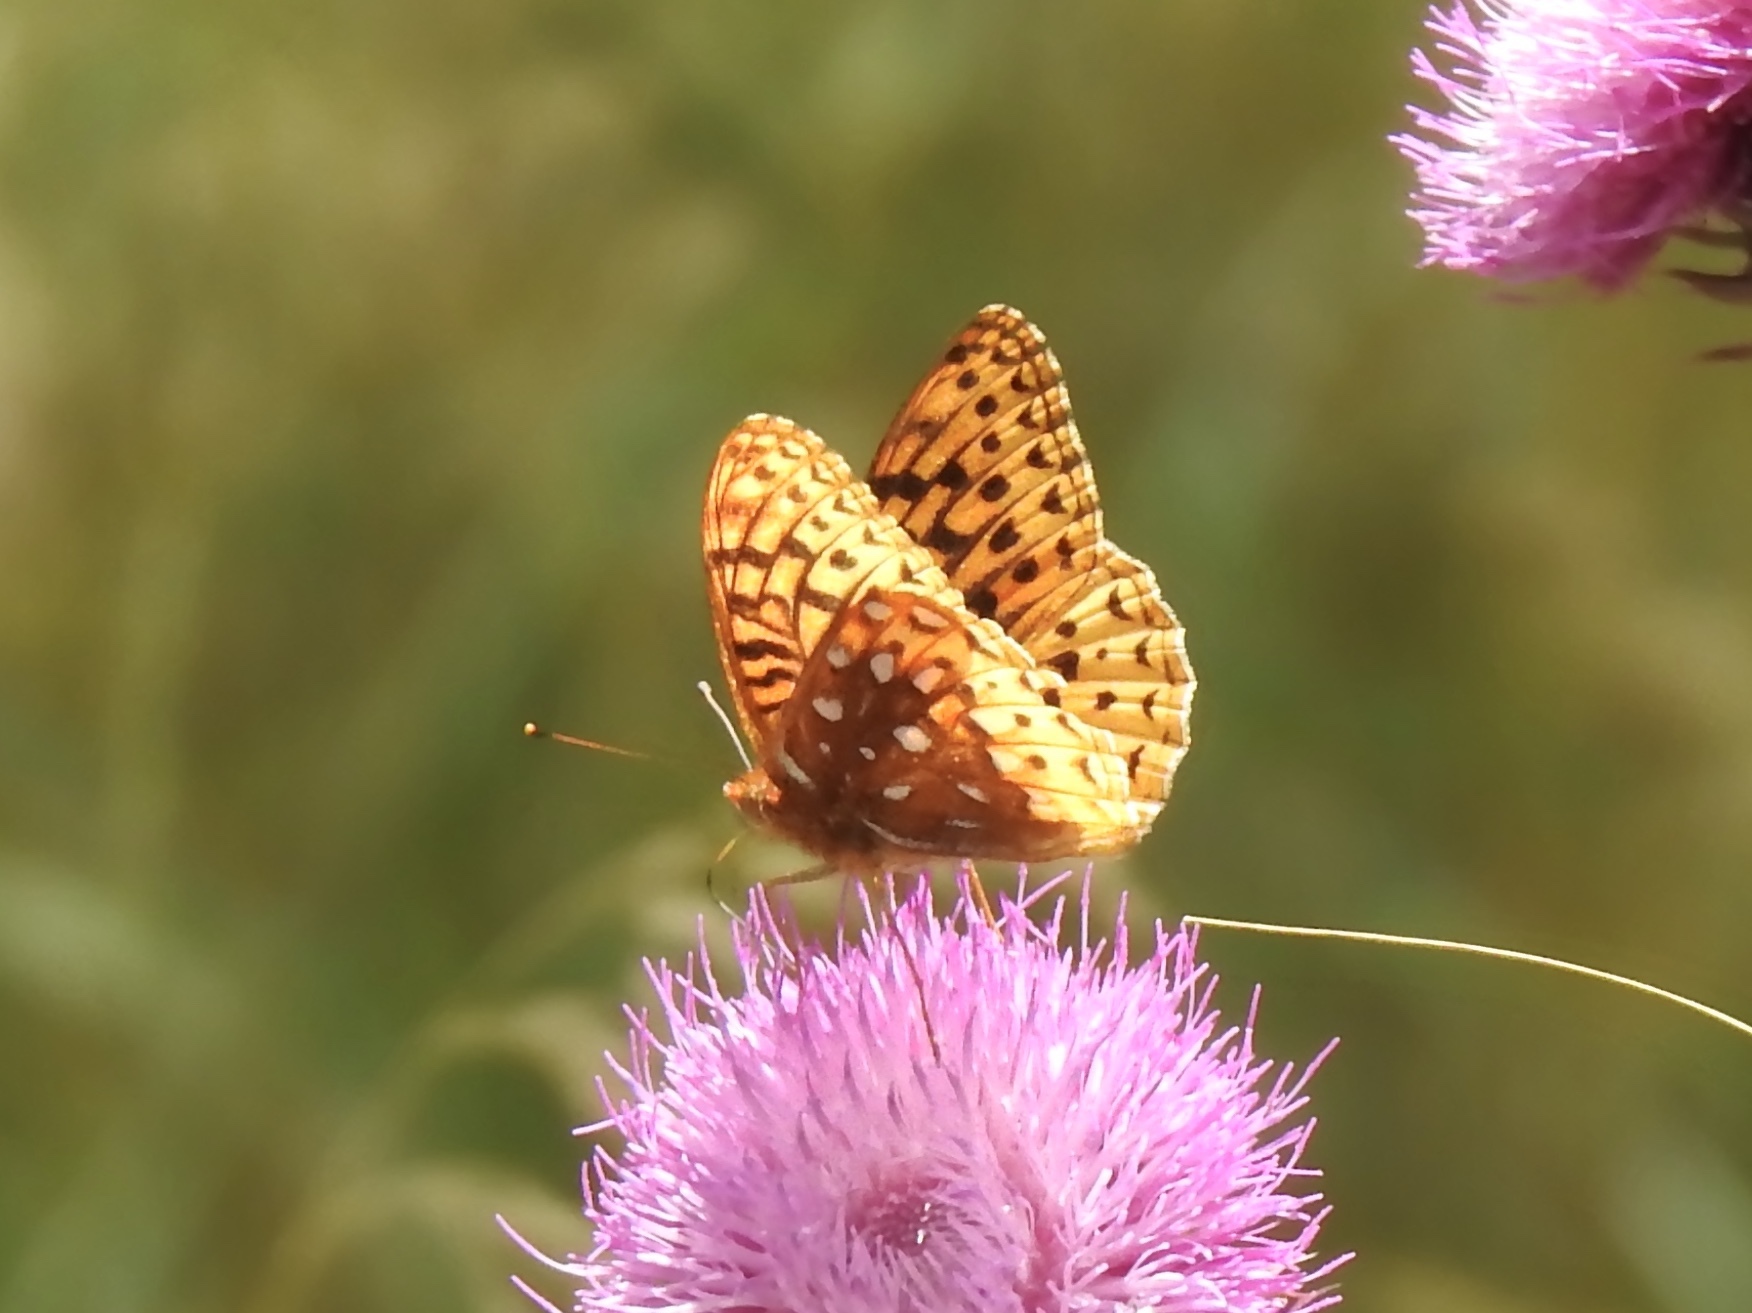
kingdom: Animalia
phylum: Arthropoda
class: Insecta
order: Lepidoptera
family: Nymphalidae
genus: Speyeria
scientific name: Speyeria atlantis
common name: Atlantis fritillary
